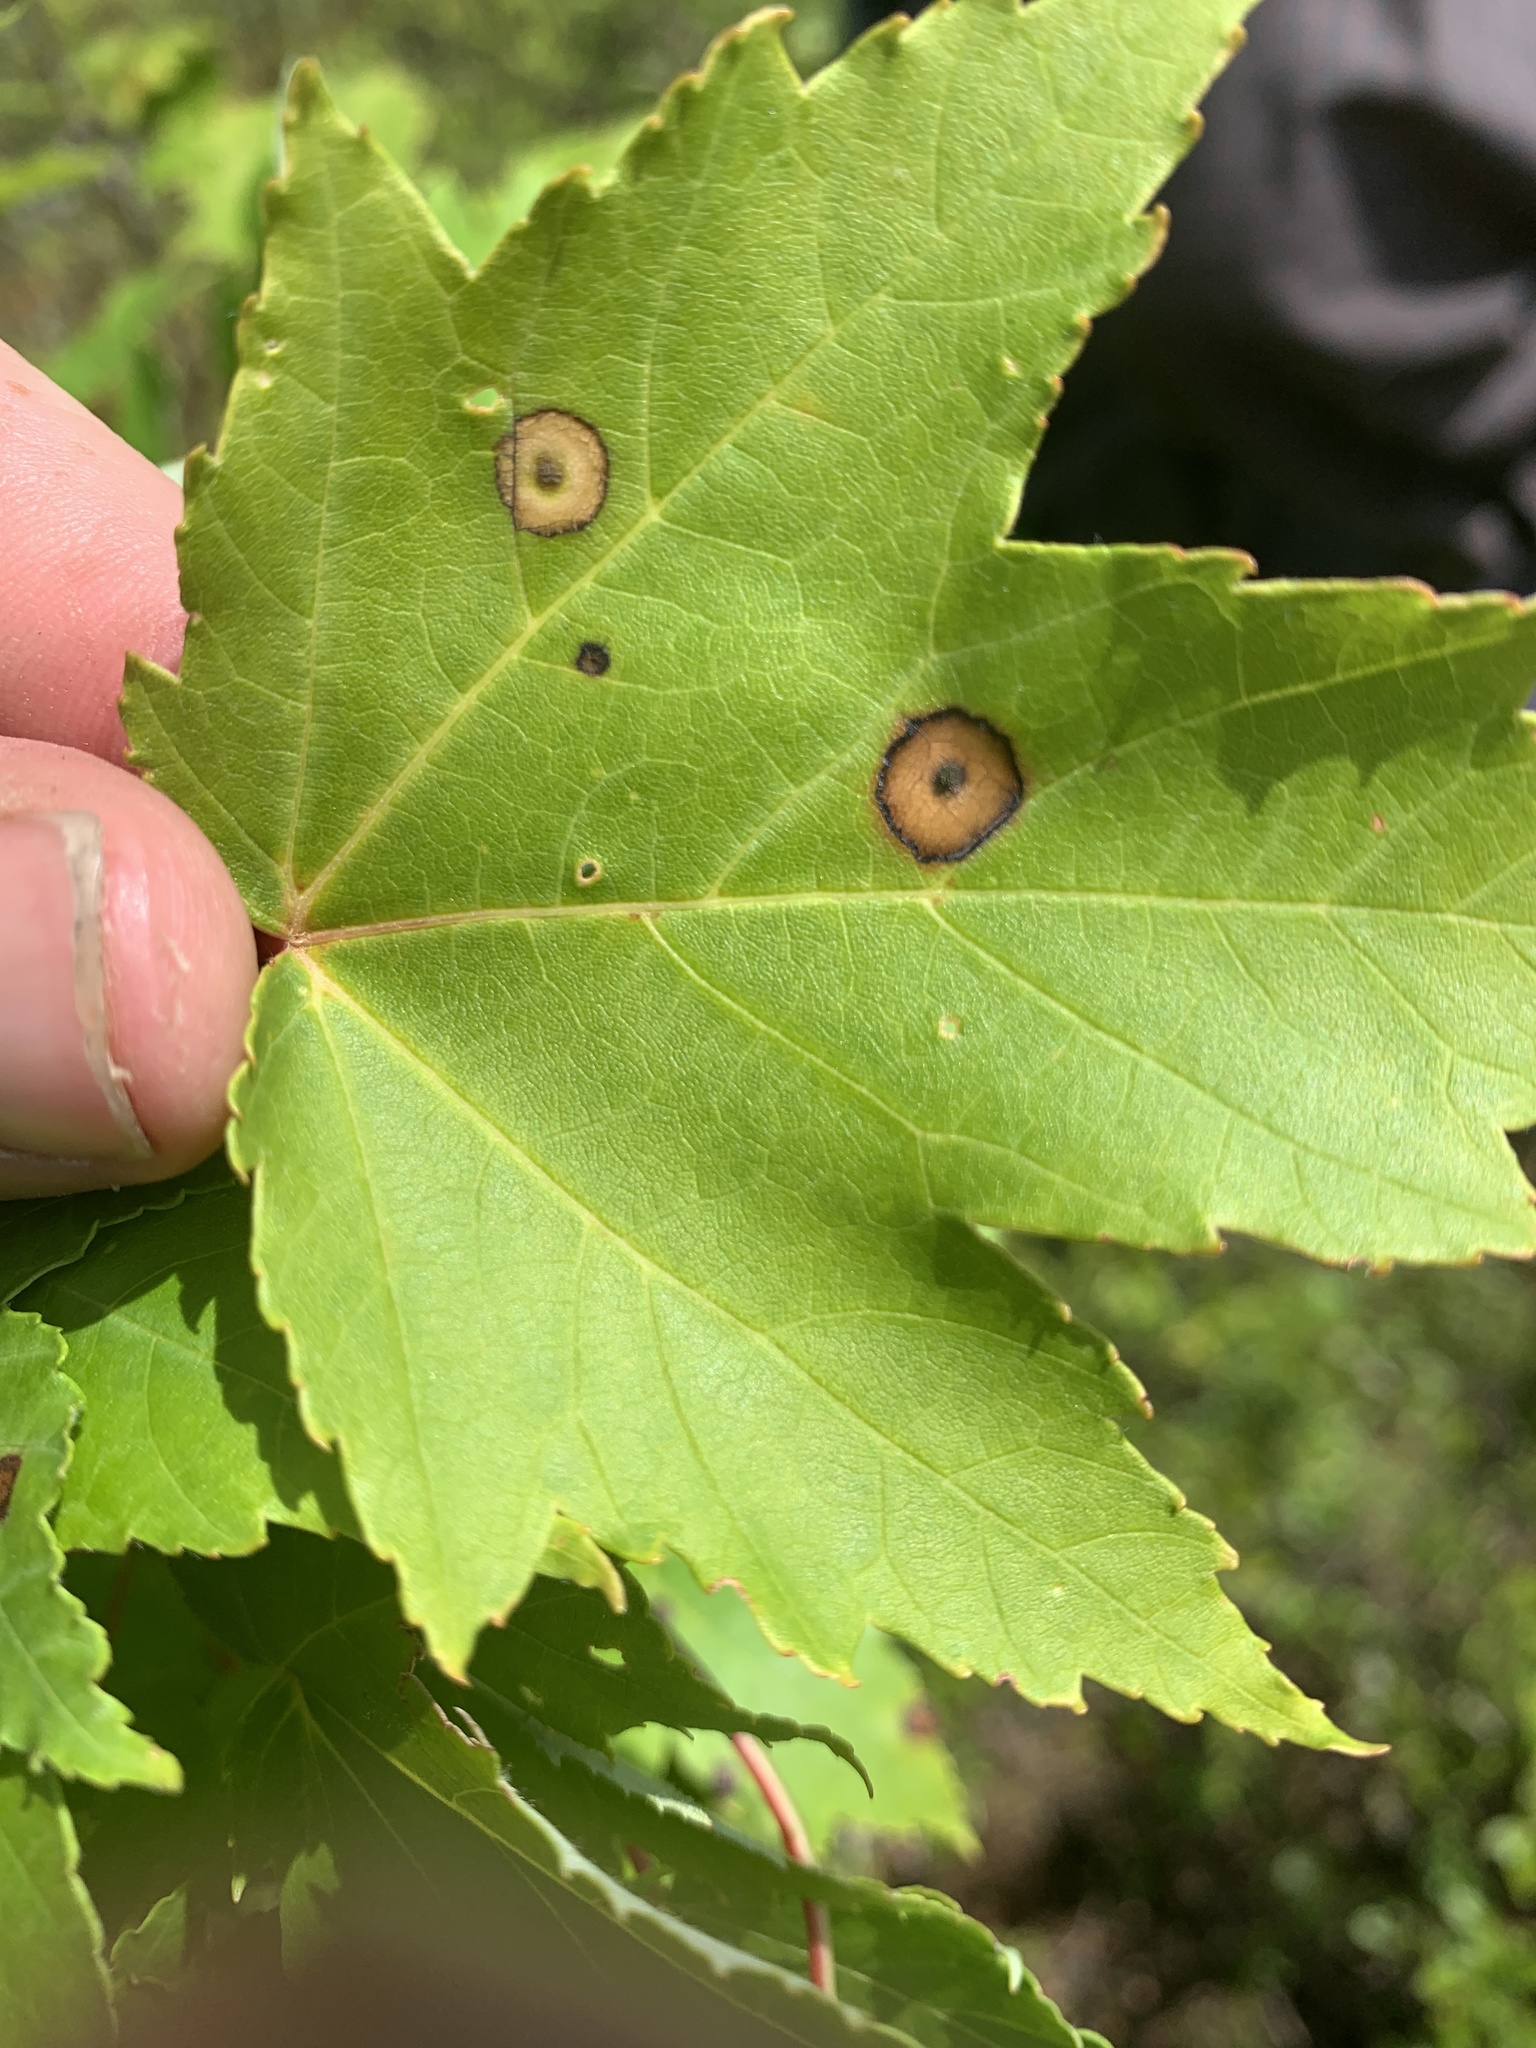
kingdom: Animalia
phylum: Arthropoda
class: Insecta
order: Diptera
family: Cecidomyiidae
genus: Acericecis
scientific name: Acericecis ocellaris
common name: Ocellate gall midge
